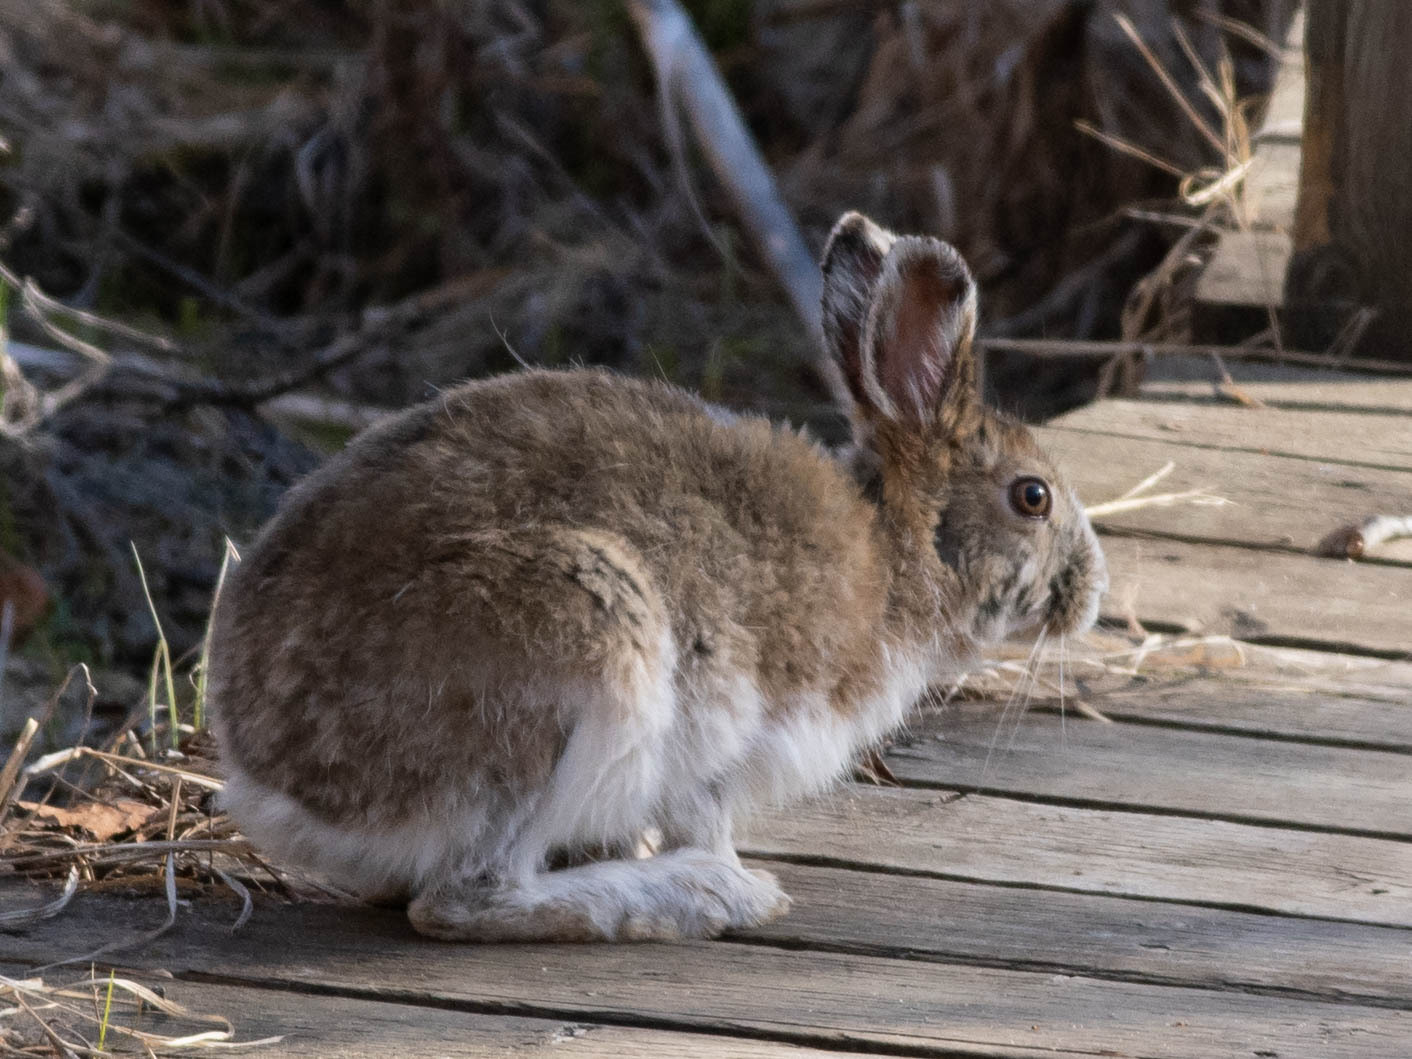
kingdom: Animalia
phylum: Chordata
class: Mammalia
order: Lagomorpha
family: Leporidae
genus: Lepus
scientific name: Lepus americanus
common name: Snowshoe hare
